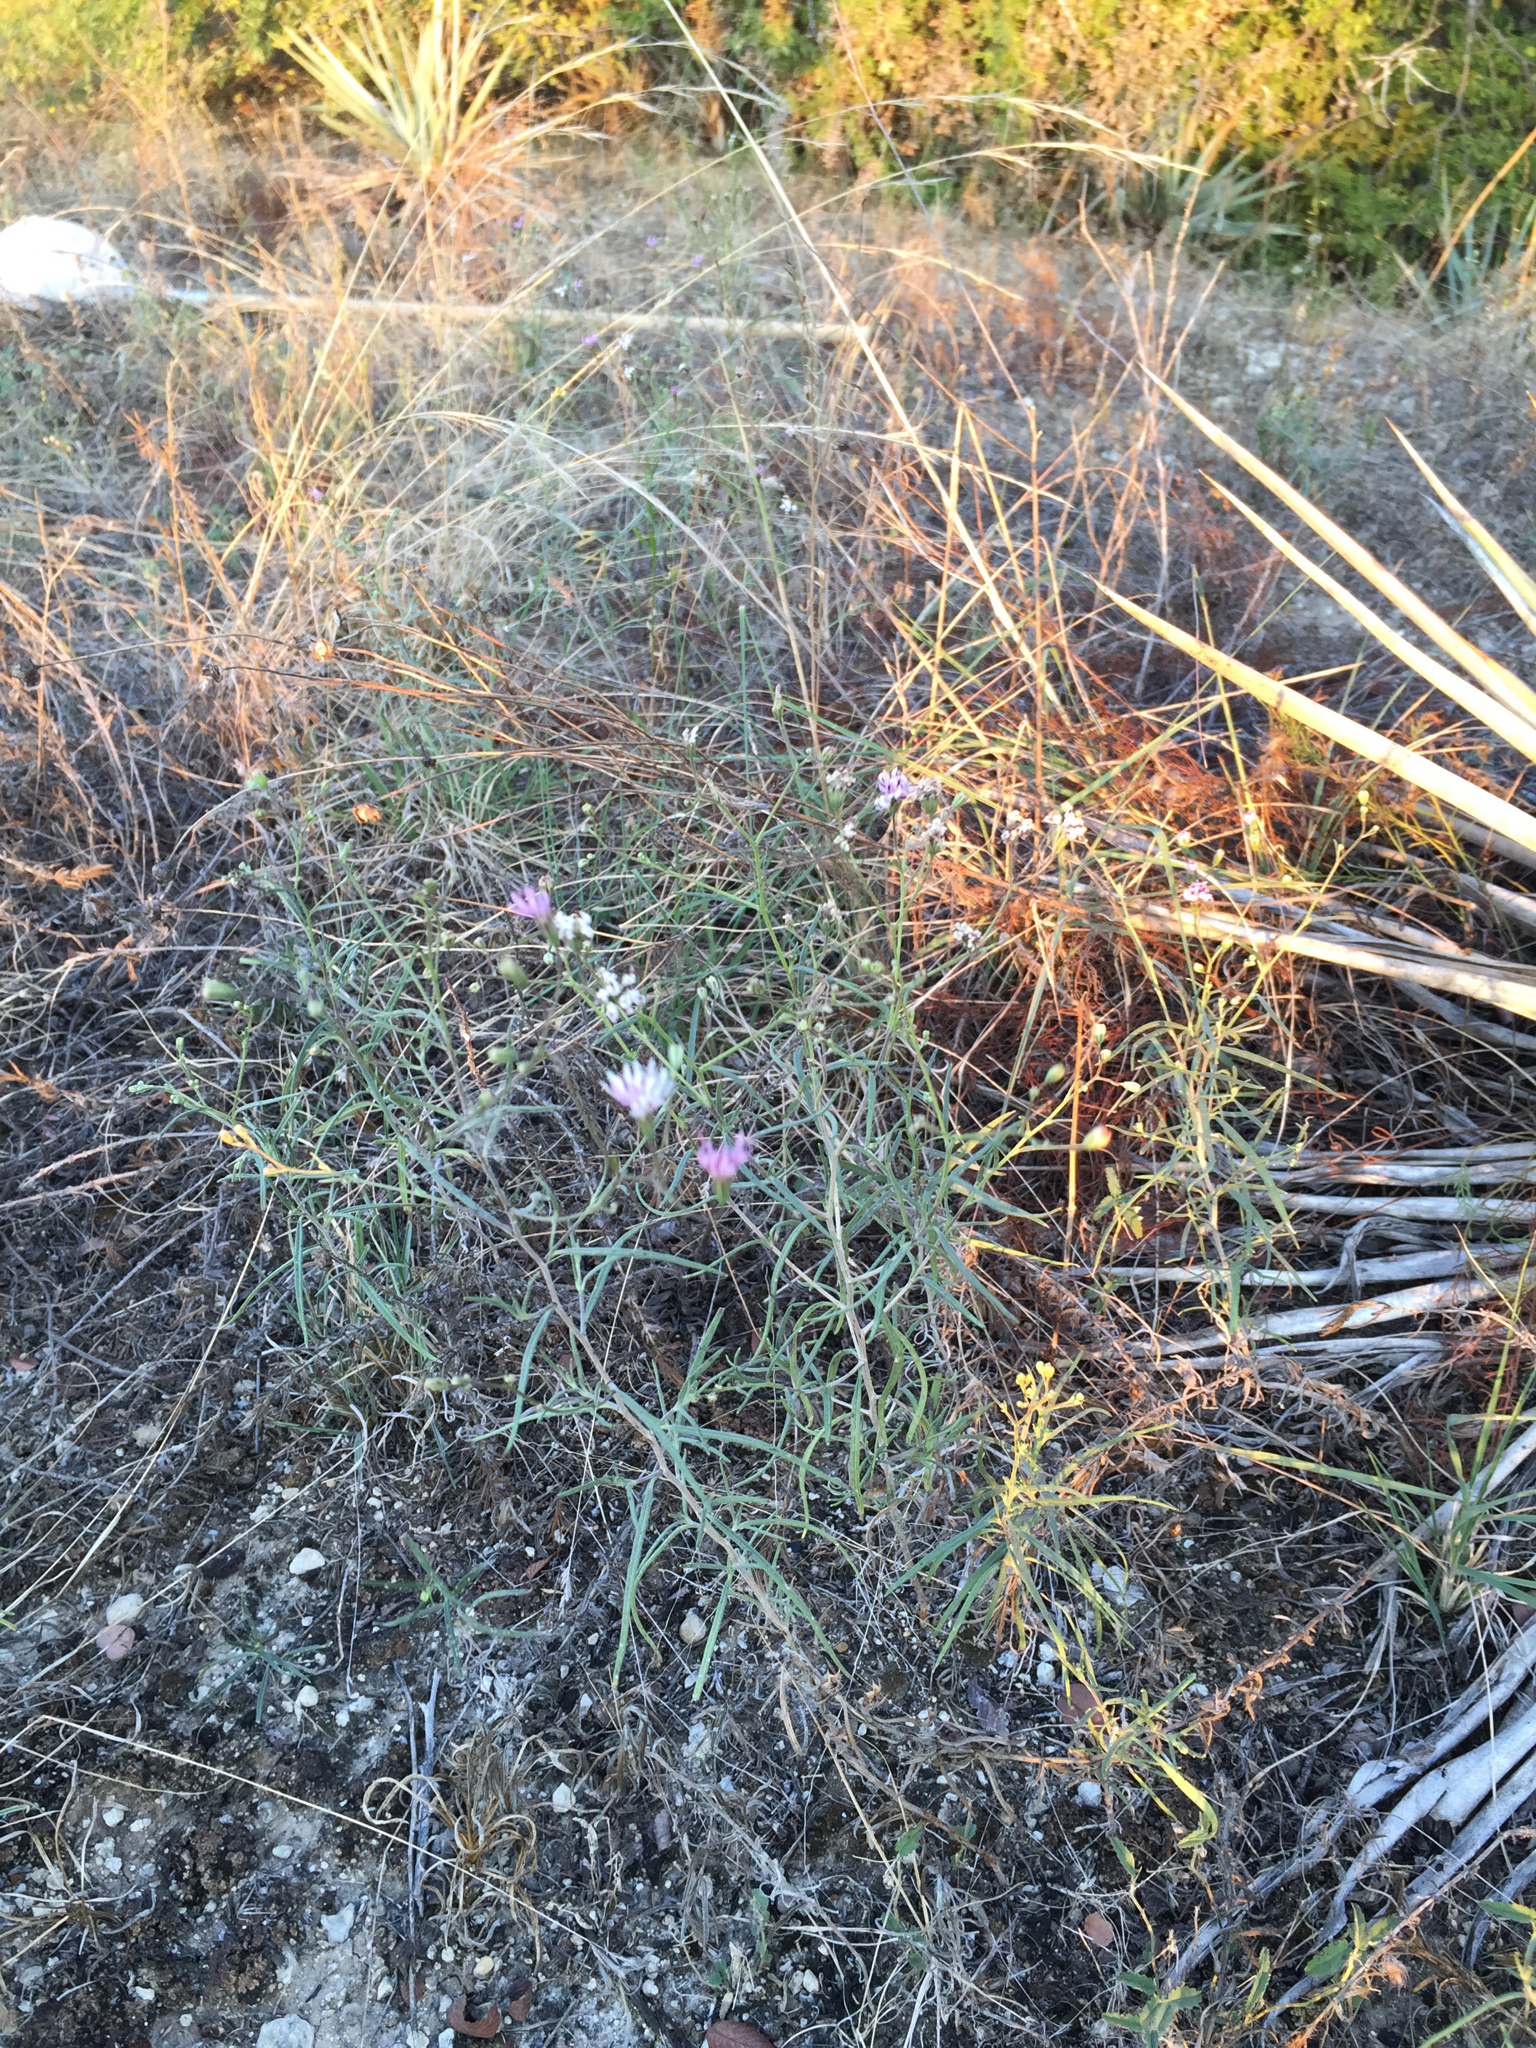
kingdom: Plantae
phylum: Tracheophyta
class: Magnoliopsida
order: Asterales
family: Asteraceae
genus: Palafoxia
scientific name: Palafoxia callosa
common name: Small palafox
